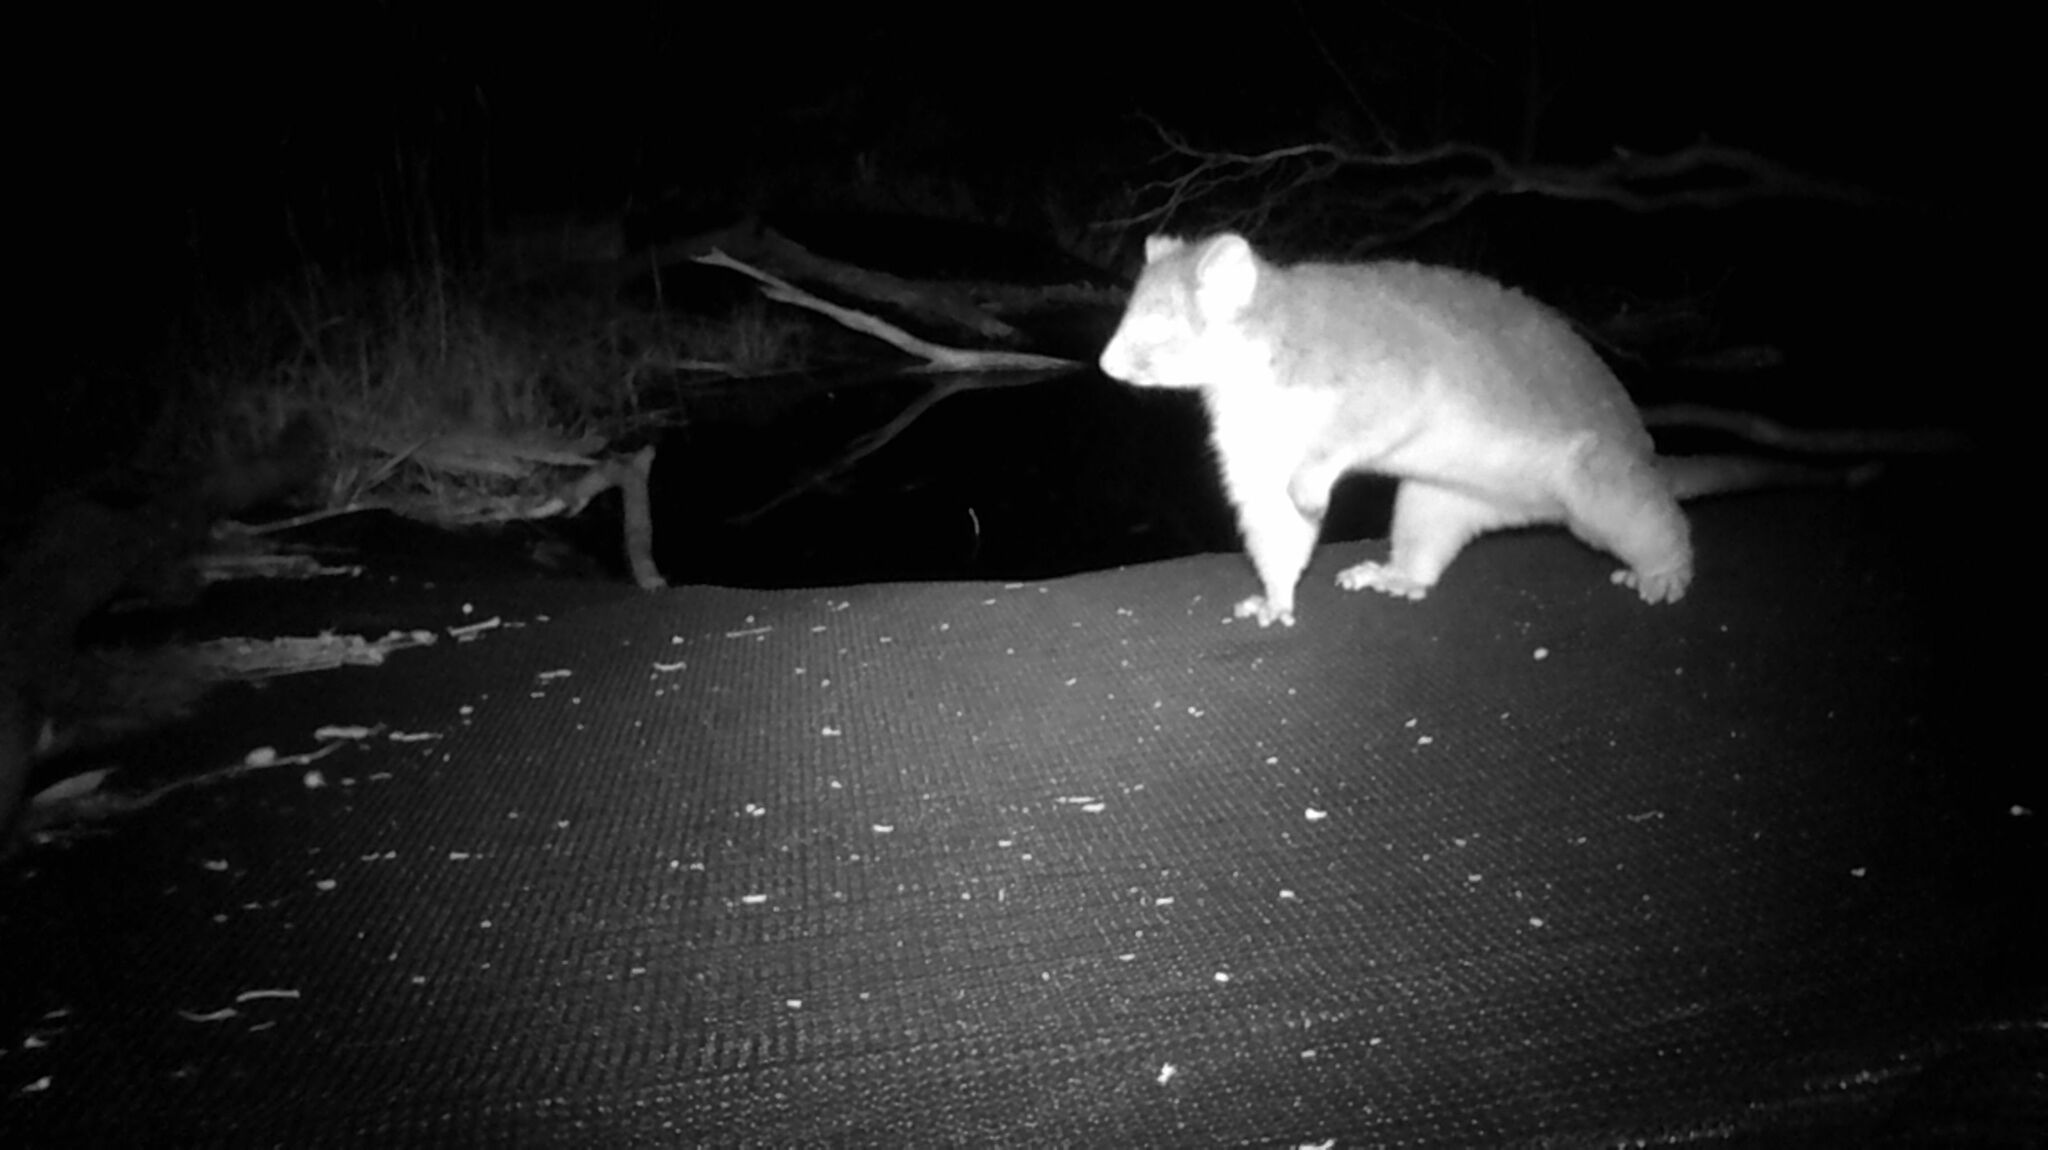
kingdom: Animalia
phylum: Chordata
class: Mammalia
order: Diprotodontia
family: Pseudocheiridae
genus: Pseudocheirus
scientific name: Pseudocheirus peregrinus
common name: Common ringtail possum
